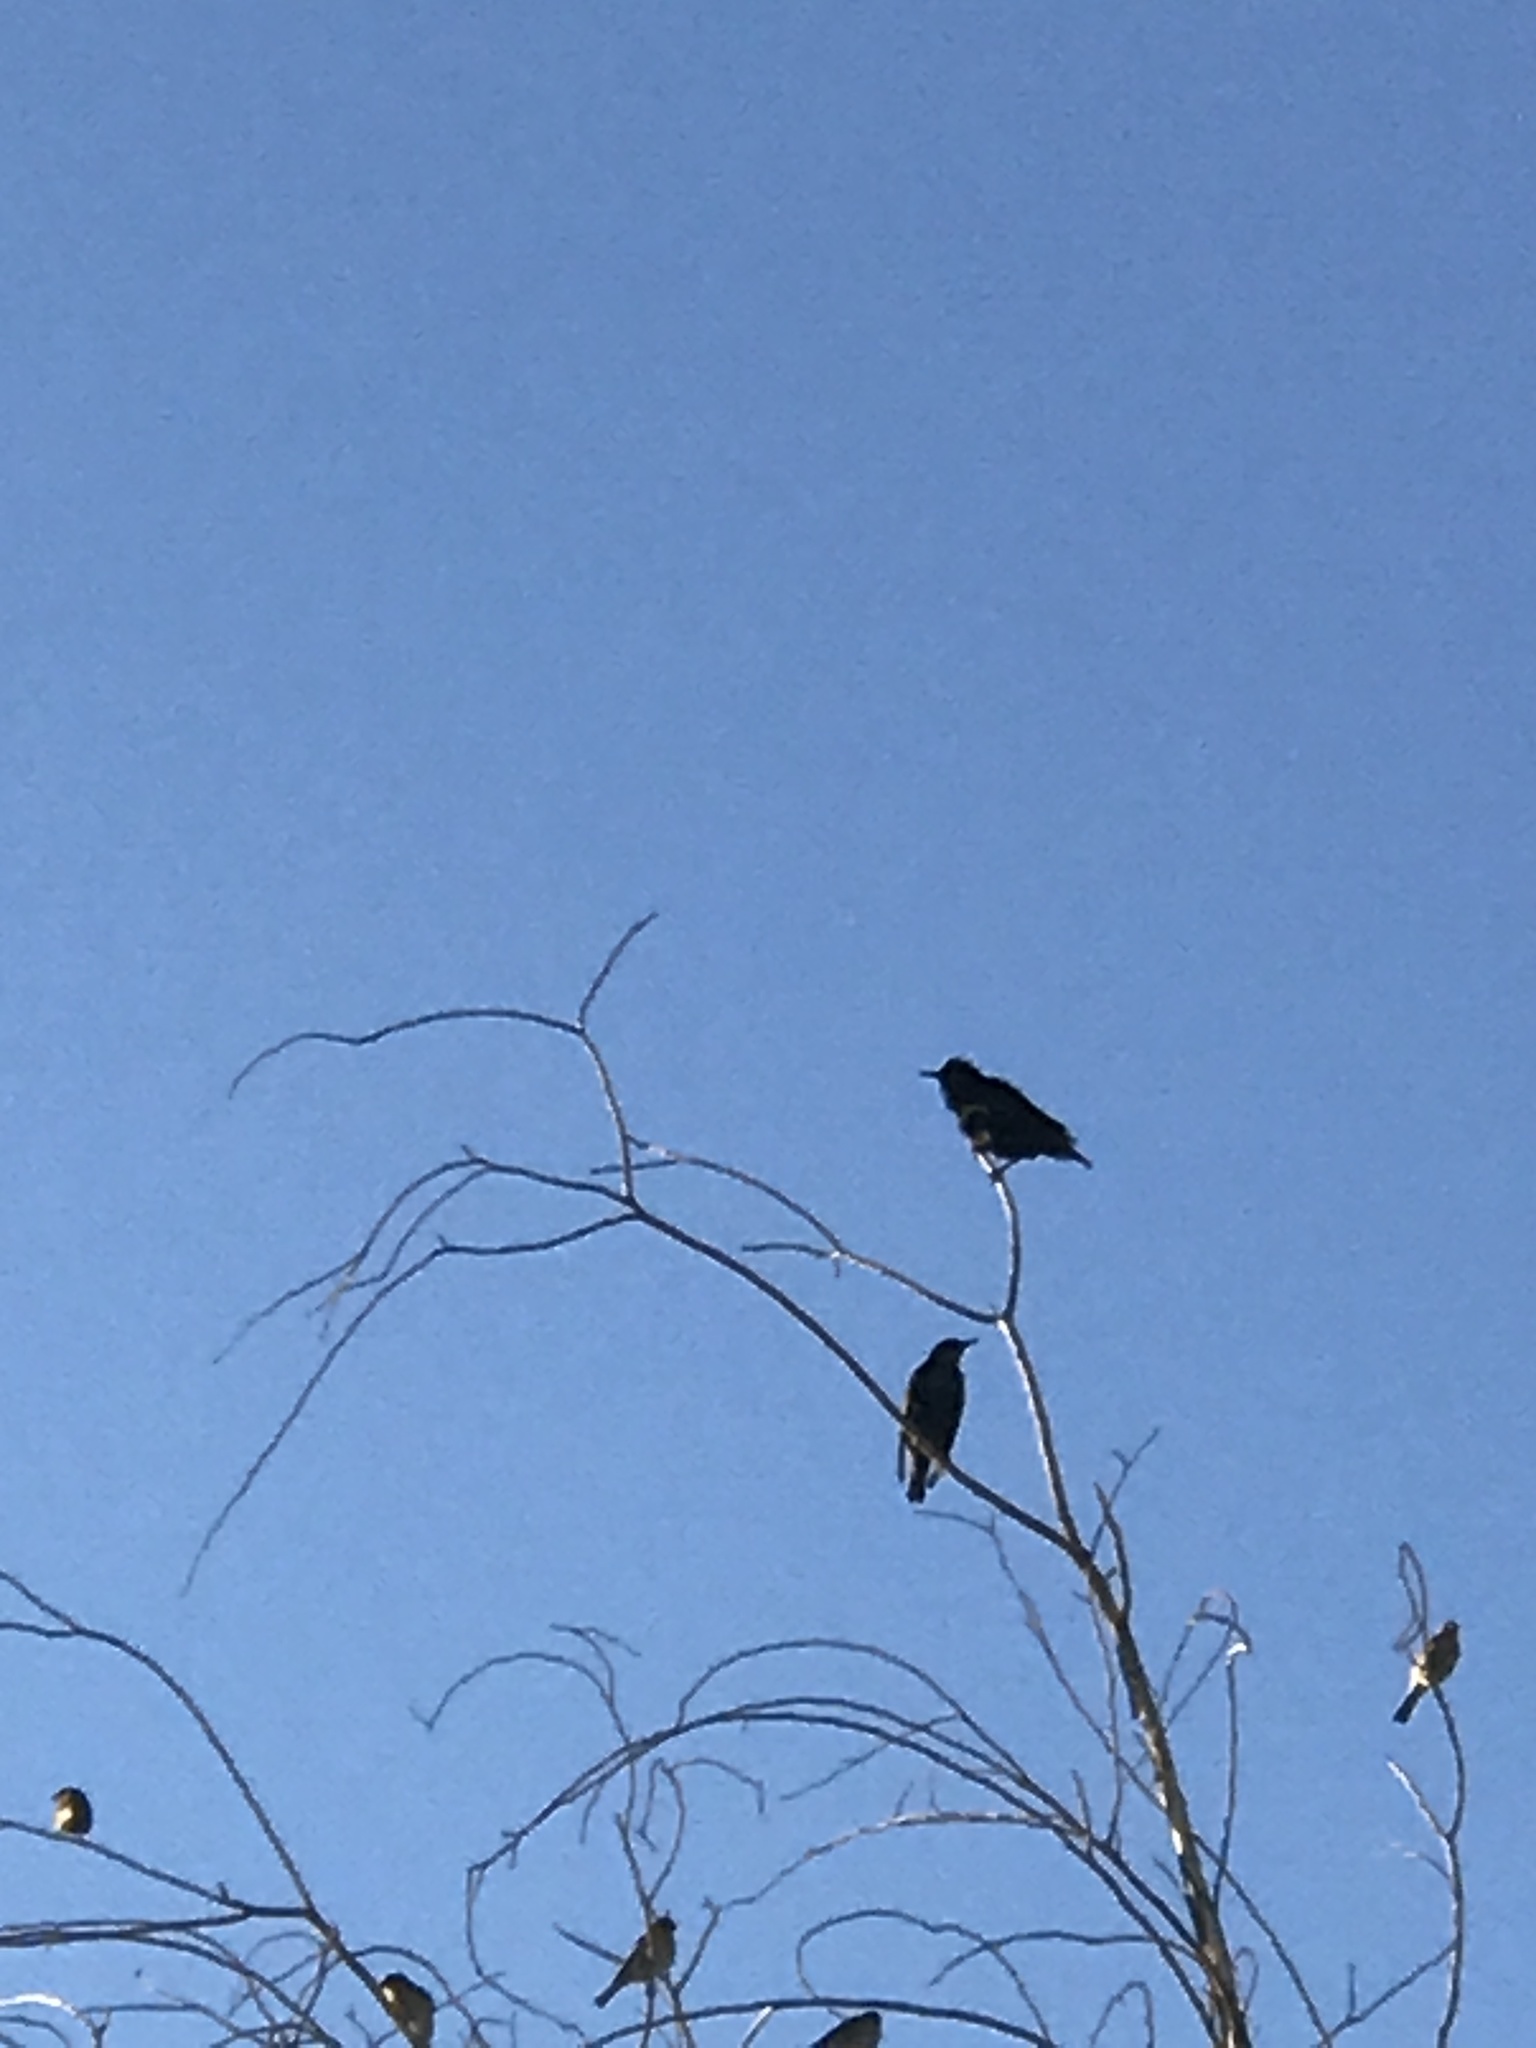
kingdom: Animalia
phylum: Chordata
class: Aves
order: Passeriformes
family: Sturnidae
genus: Sturnus
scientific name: Sturnus vulgaris
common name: Common starling
